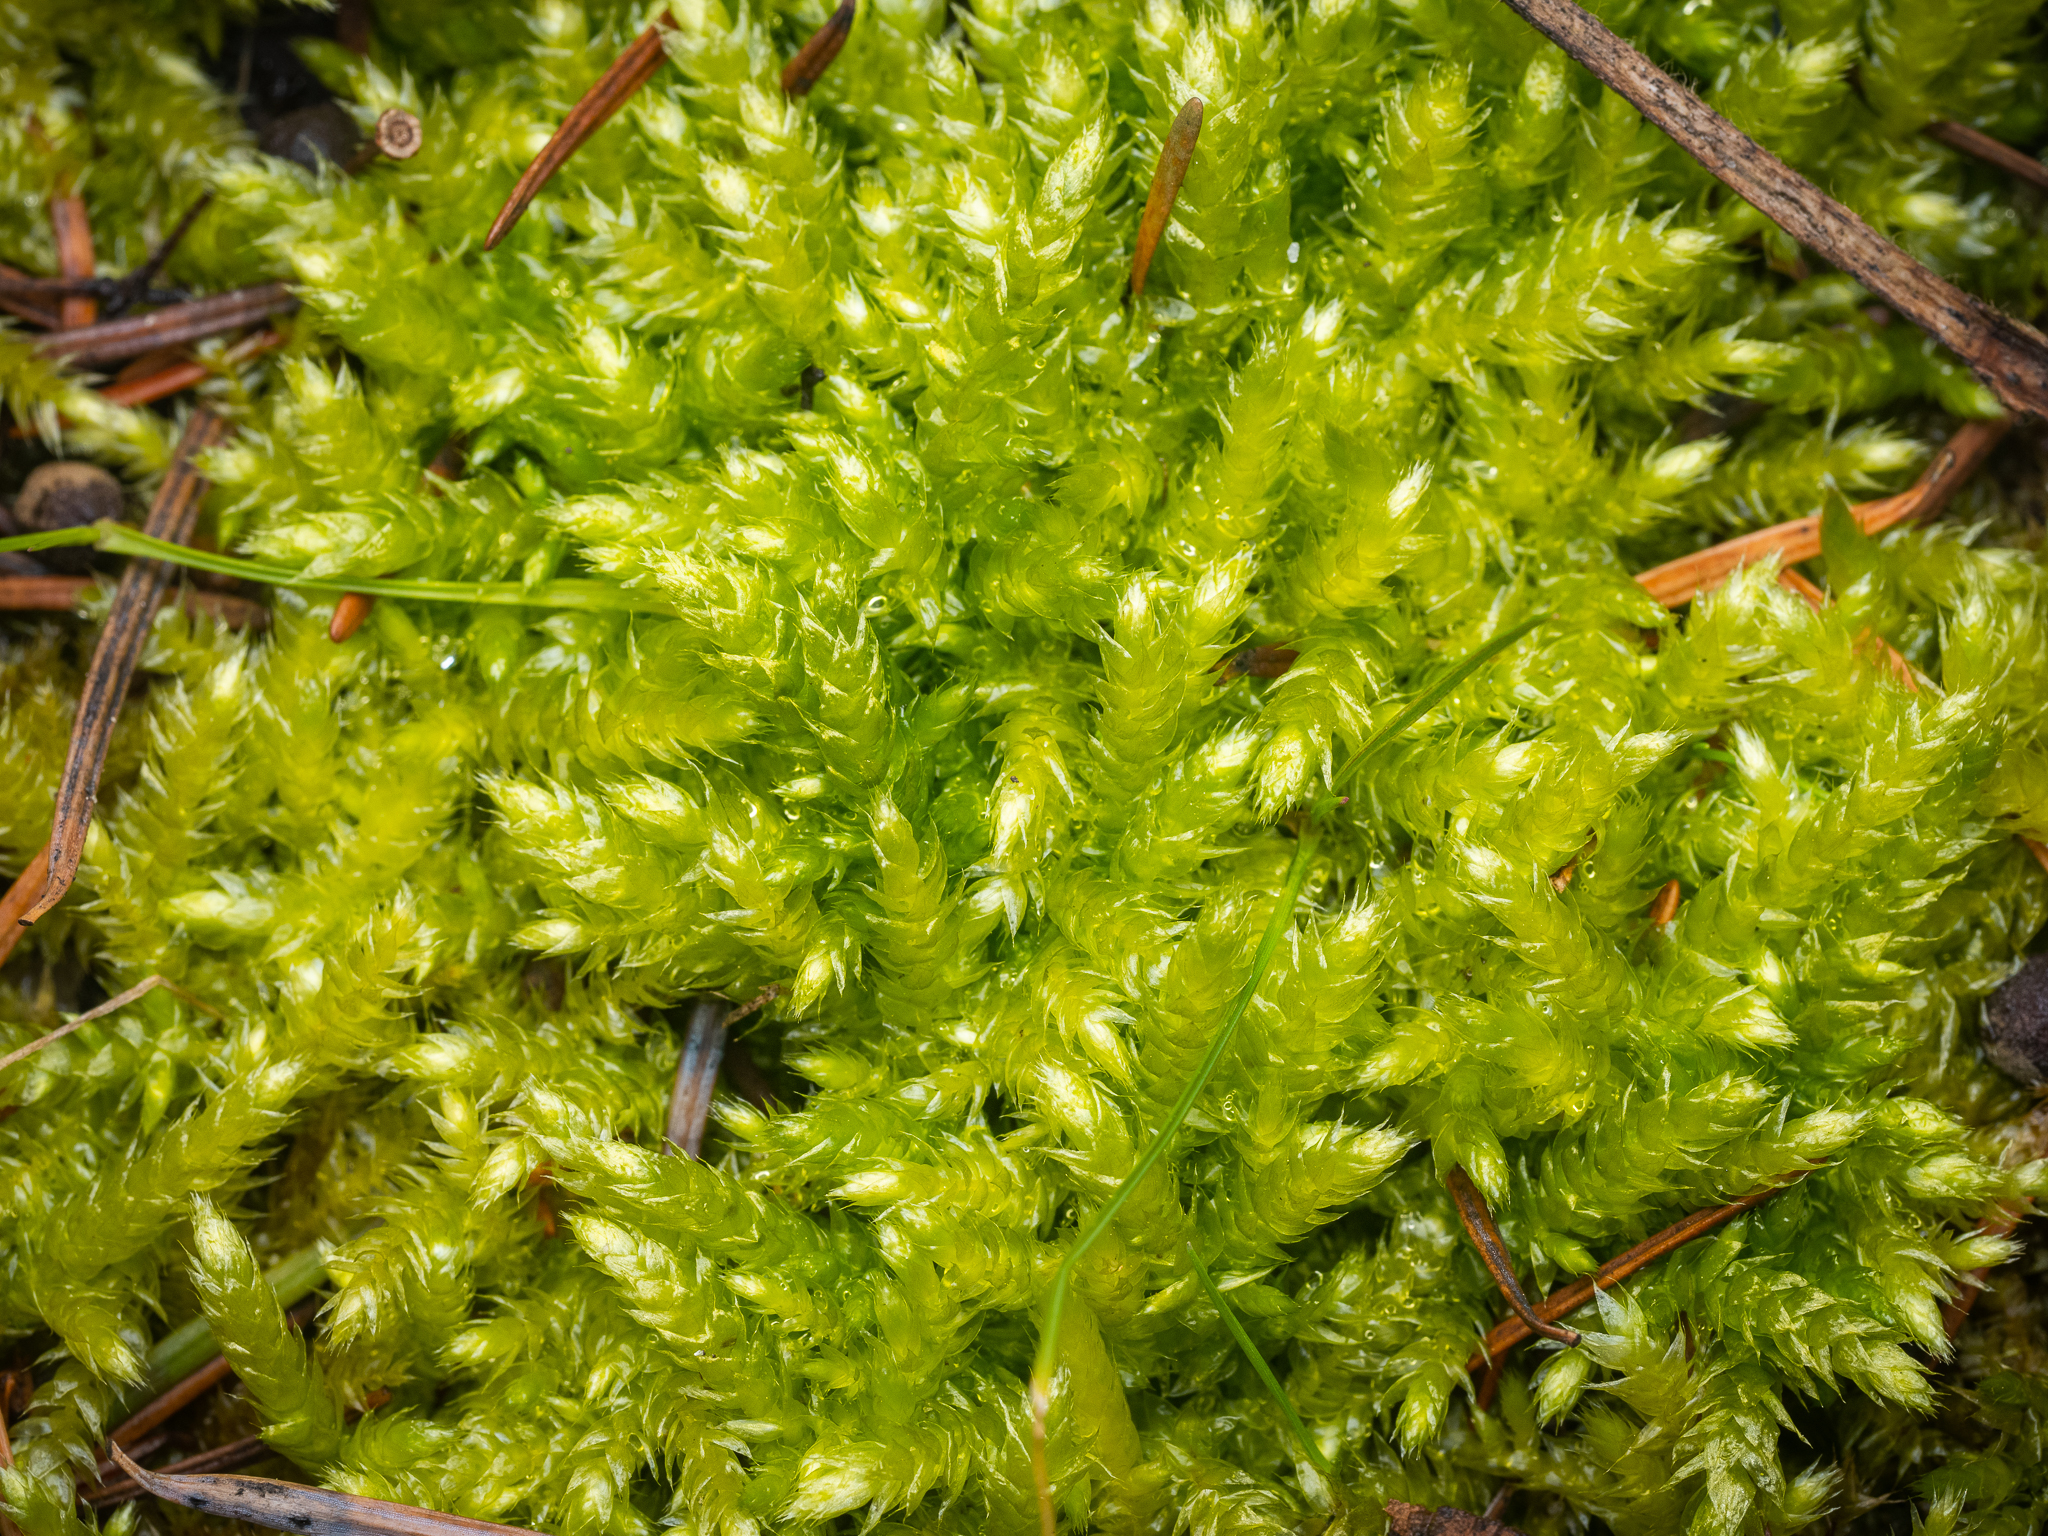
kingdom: Plantae
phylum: Bryophyta
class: Bryopsida
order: Hypnales
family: Brachytheciaceae
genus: Brachythecium
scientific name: Brachythecium rutabulum
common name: Rough-stalked feather-moss
